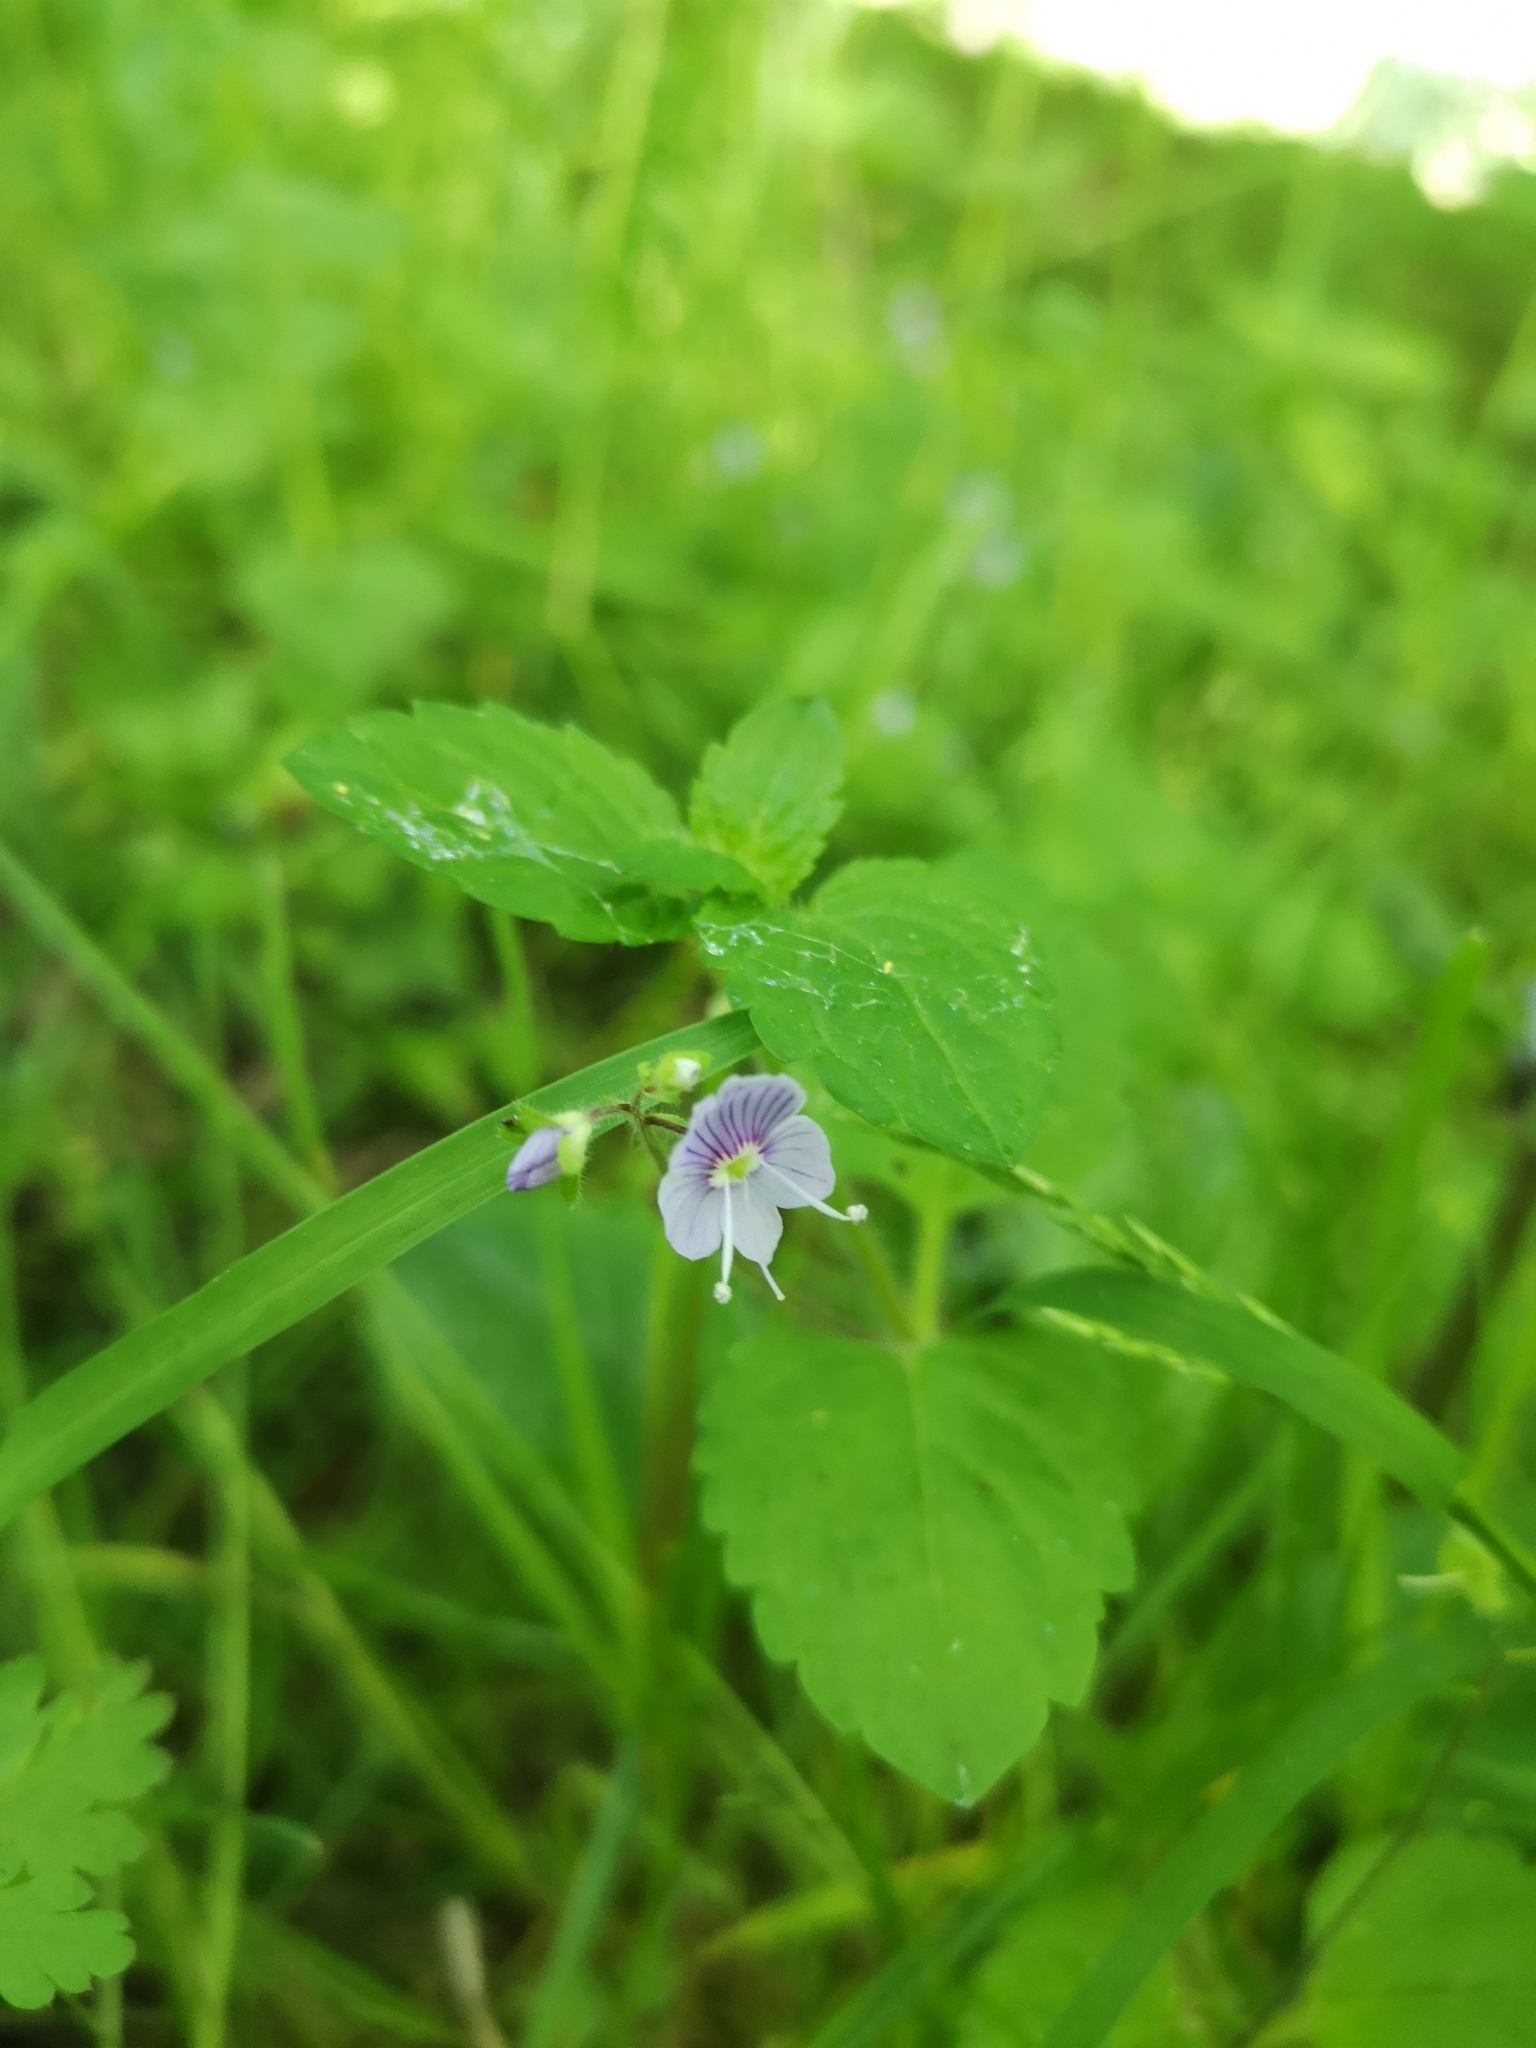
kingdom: Plantae
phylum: Tracheophyta
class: Magnoliopsida
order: Lamiales
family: Plantaginaceae
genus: Veronica
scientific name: Veronica montana
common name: Wood speedwell
